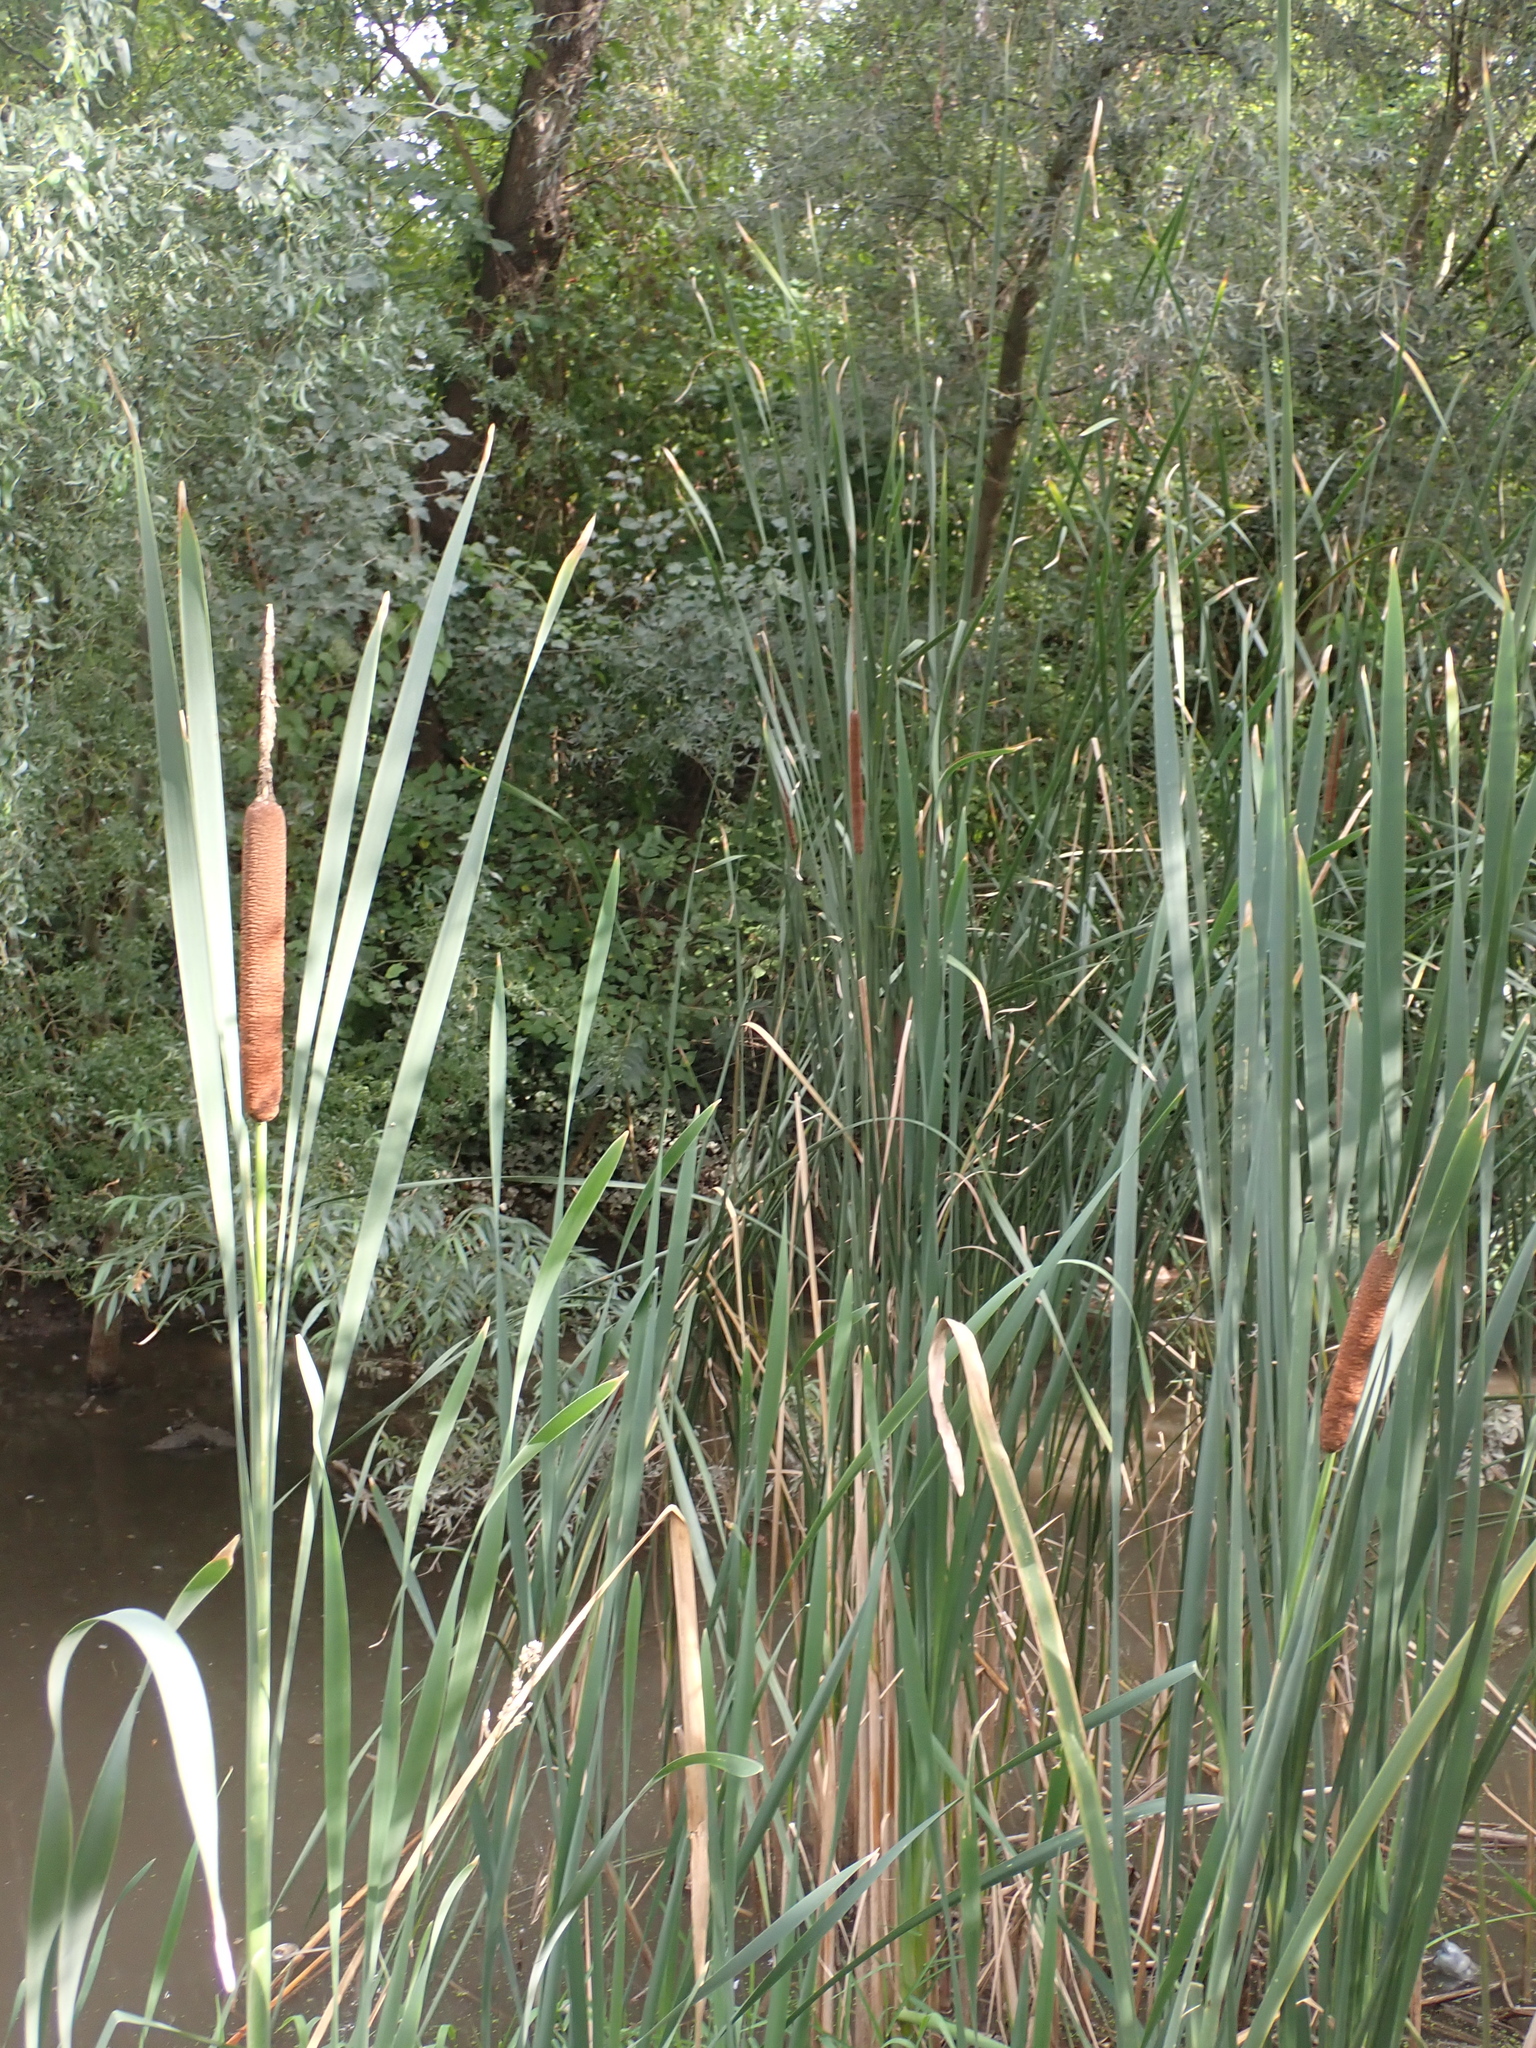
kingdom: Plantae
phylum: Tracheophyta
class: Liliopsida
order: Poales
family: Typhaceae
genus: Typha
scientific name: Typha latifolia
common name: Broadleaf cattail
